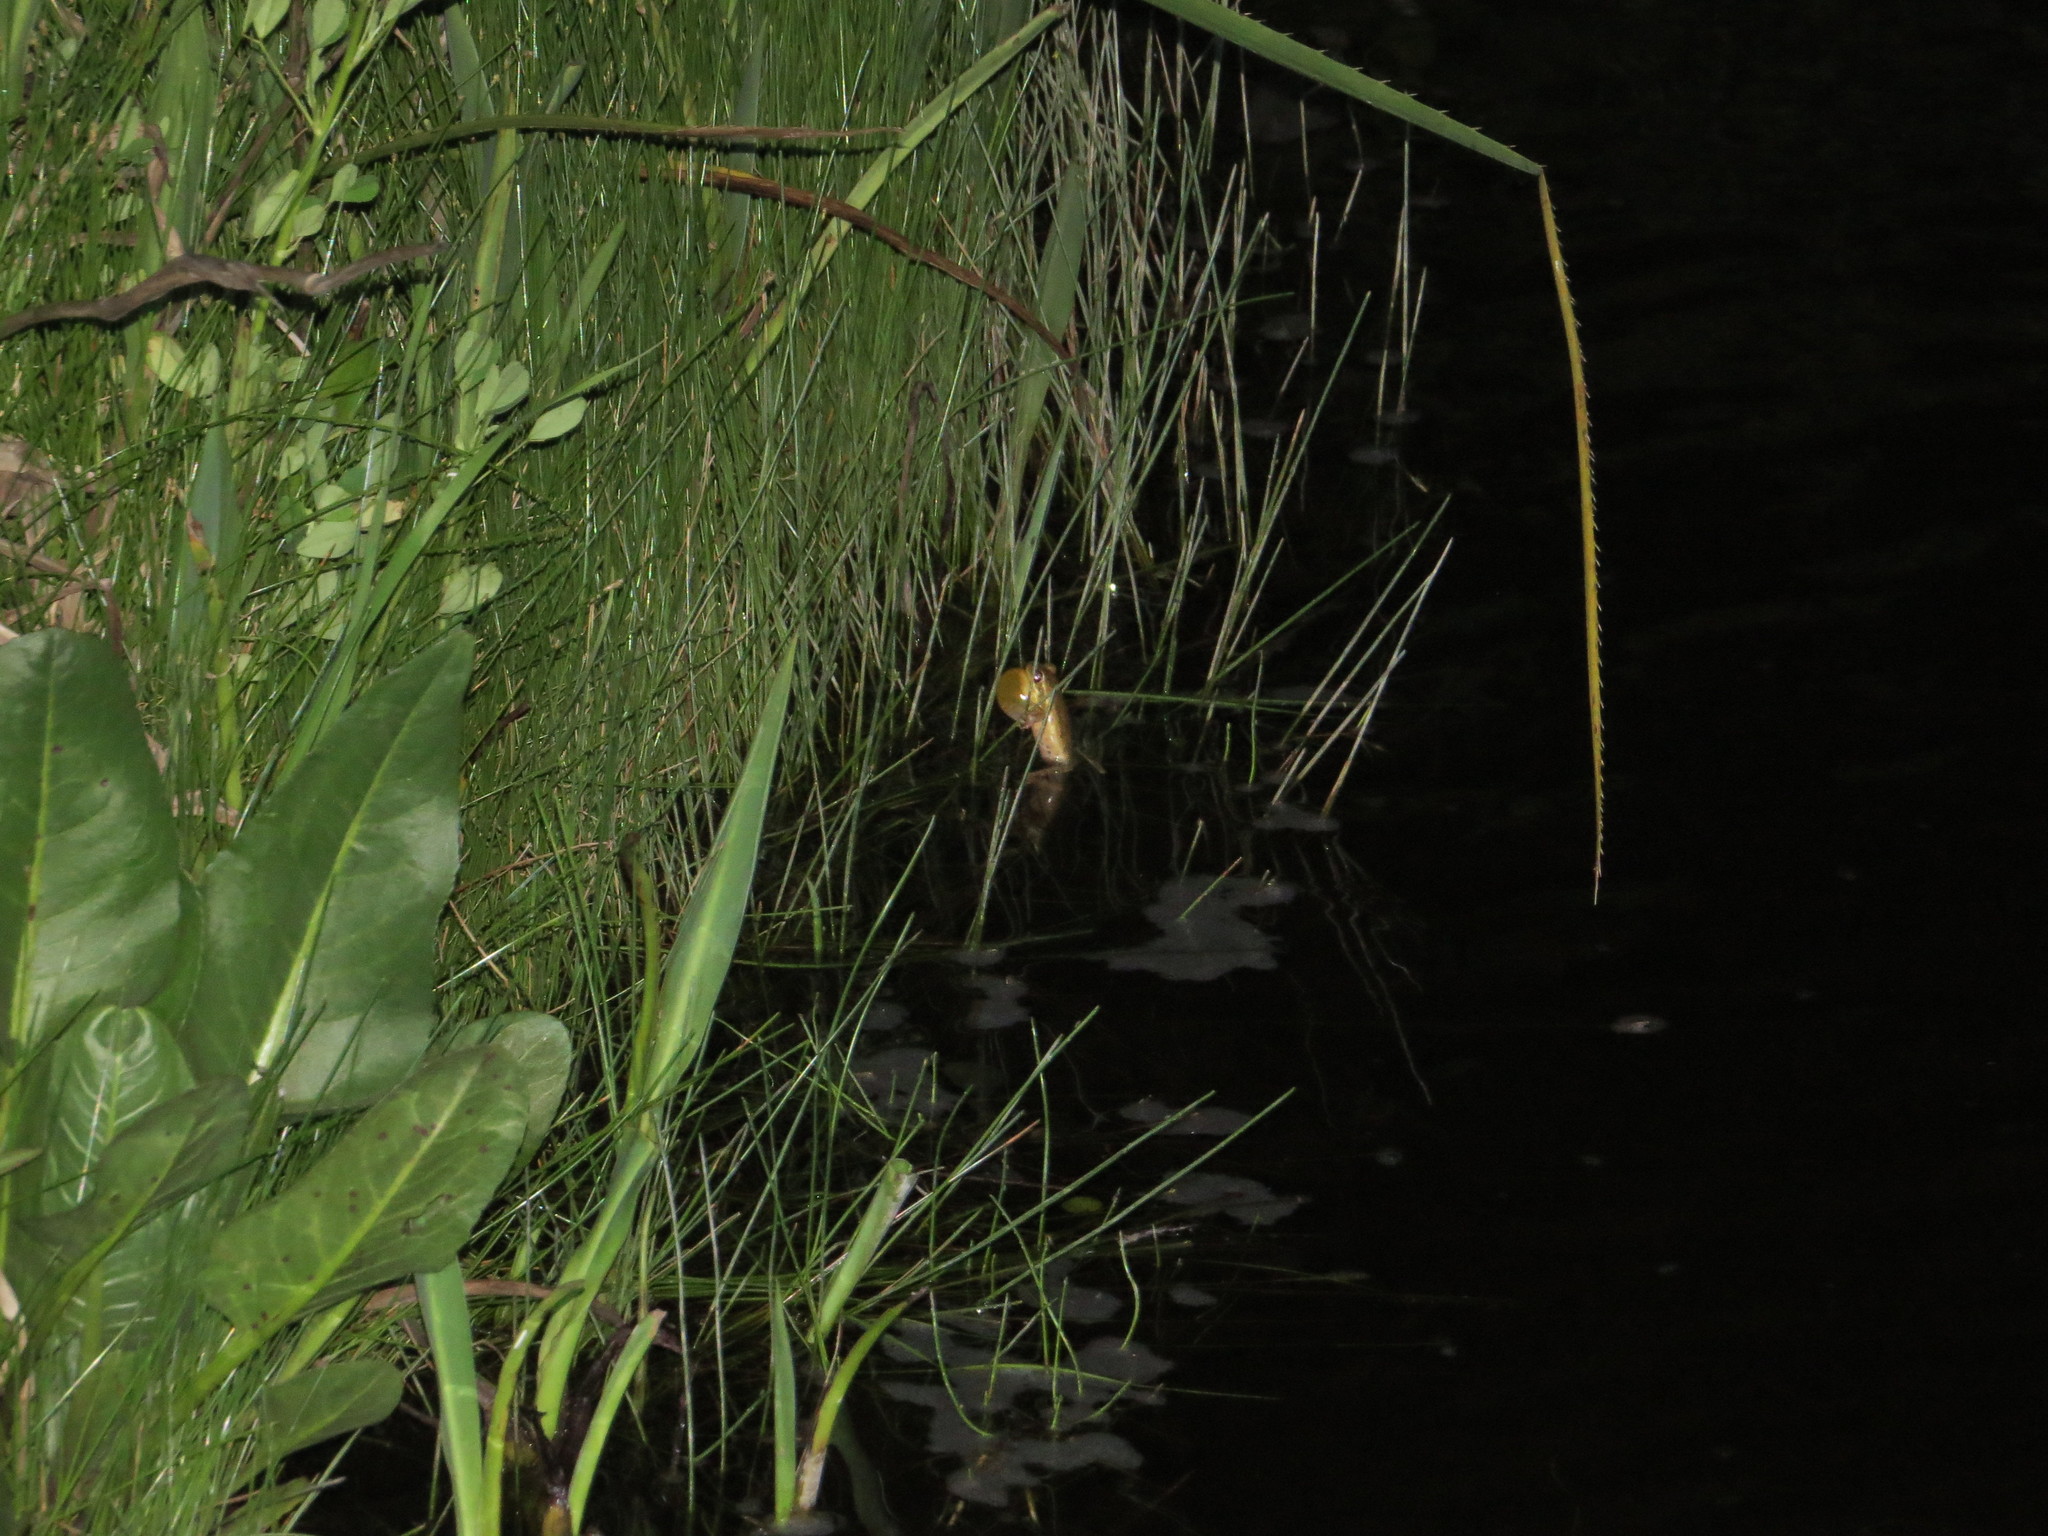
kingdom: Animalia
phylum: Chordata
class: Amphibia
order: Anura
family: Hylidae
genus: Boana
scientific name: Boana pulchella
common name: Montevideo treefrog
